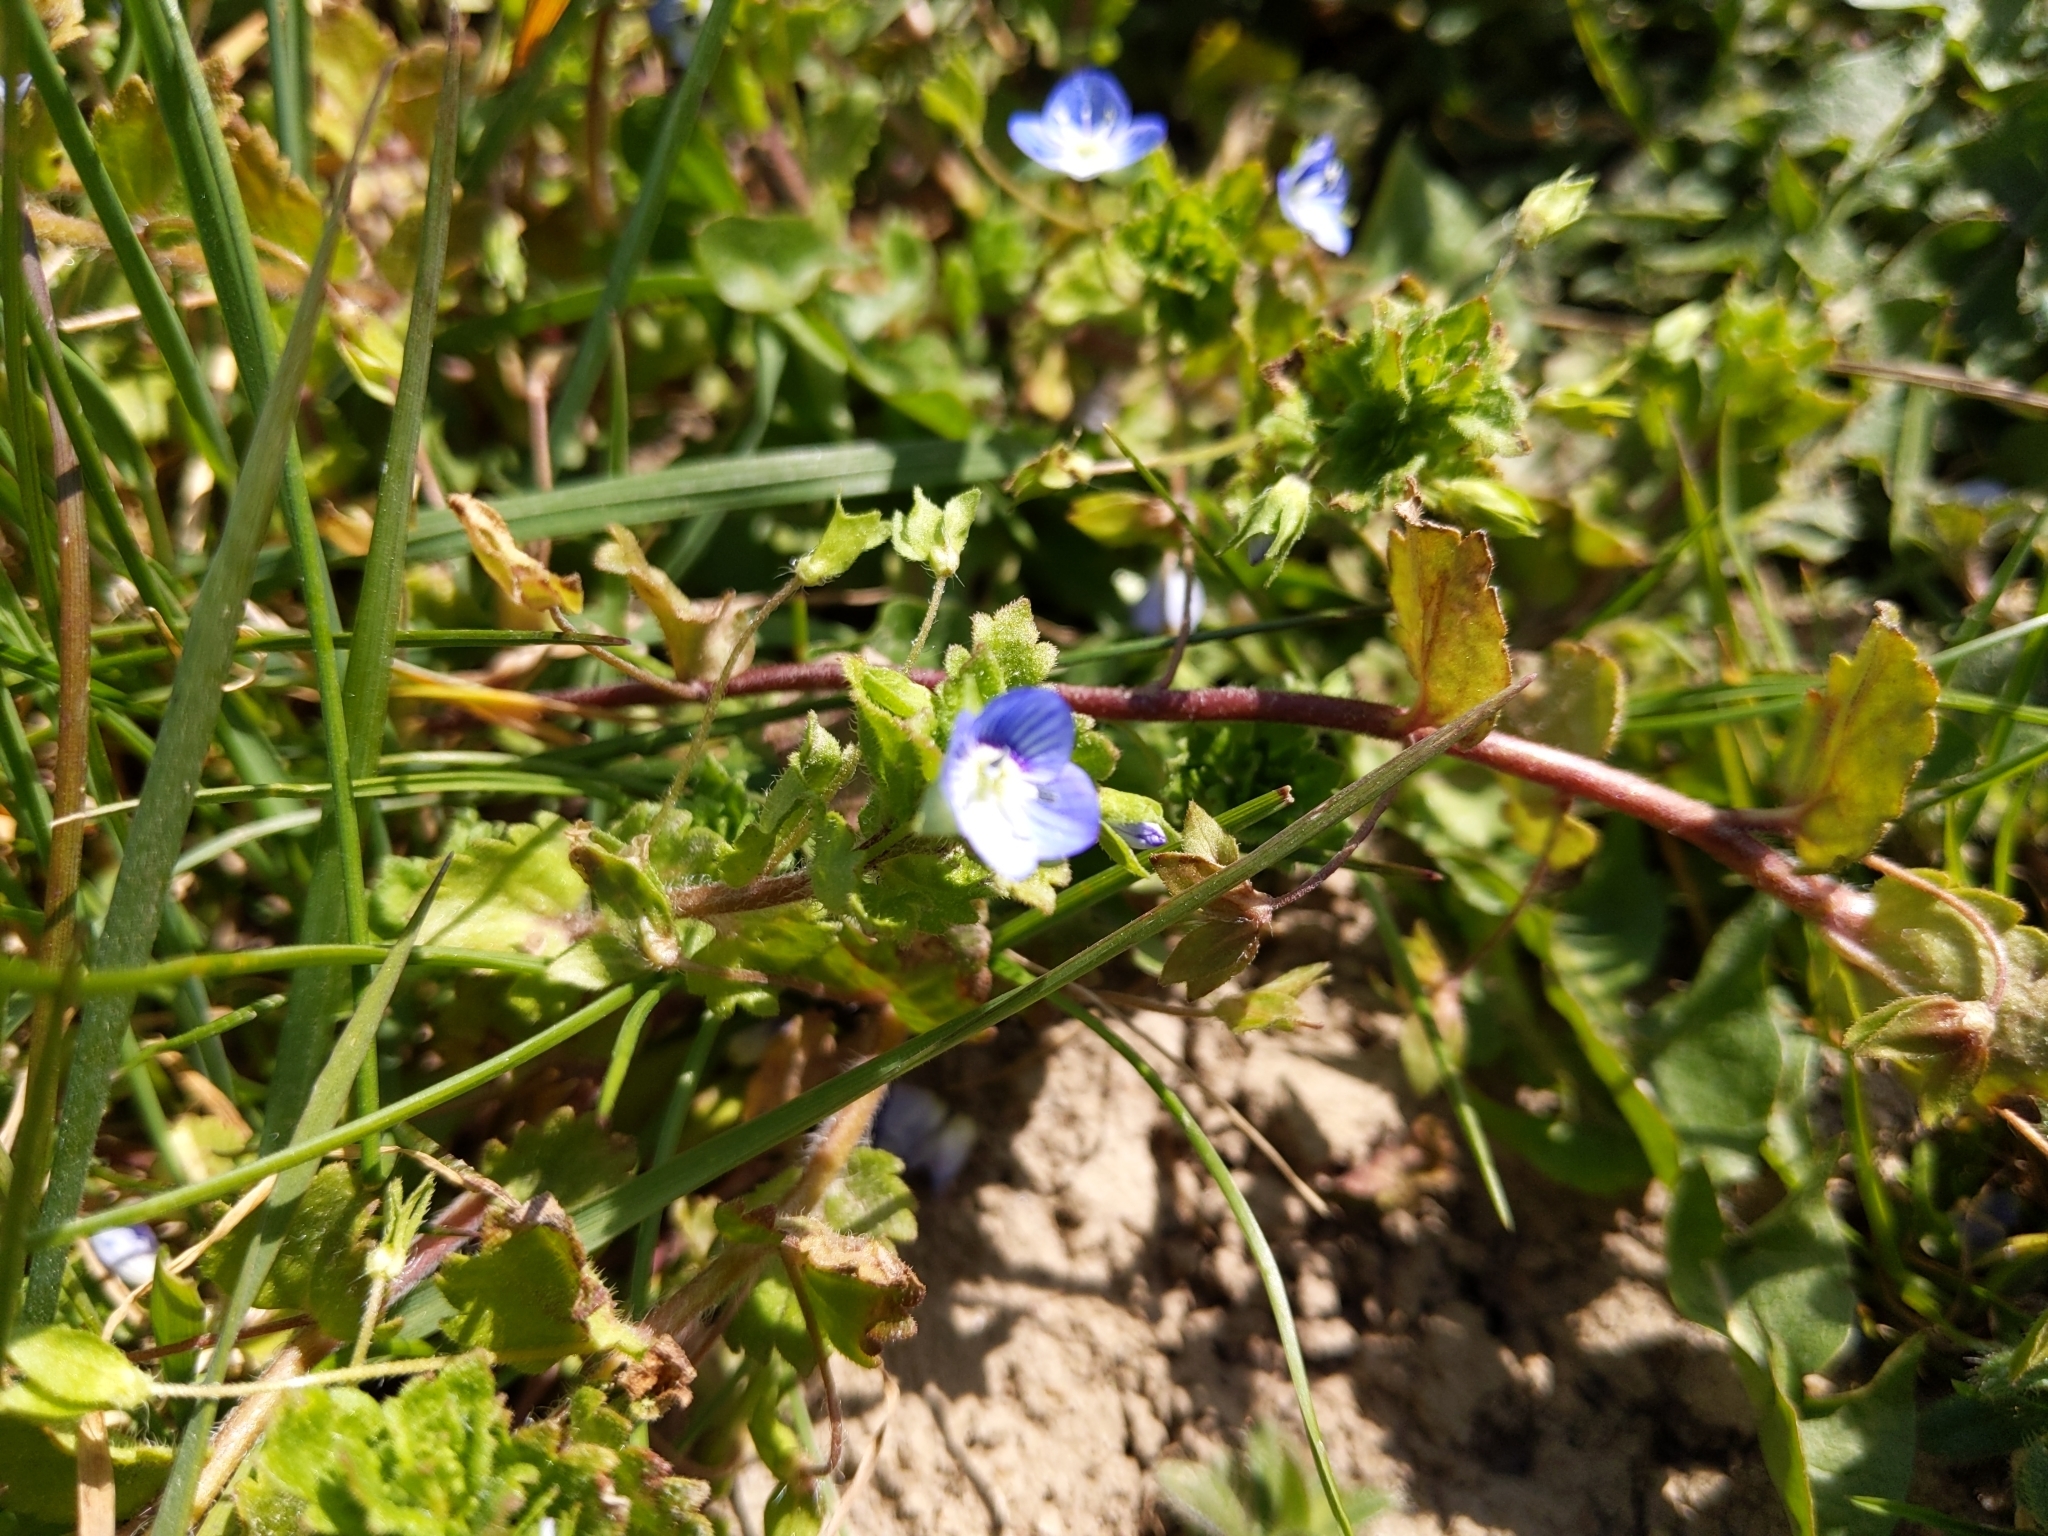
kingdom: Plantae
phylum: Tracheophyta
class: Magnoliopsida
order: Lamiales
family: Plantaginaceae
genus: Veronica
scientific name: Veronica persica
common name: Common field-speedwell
